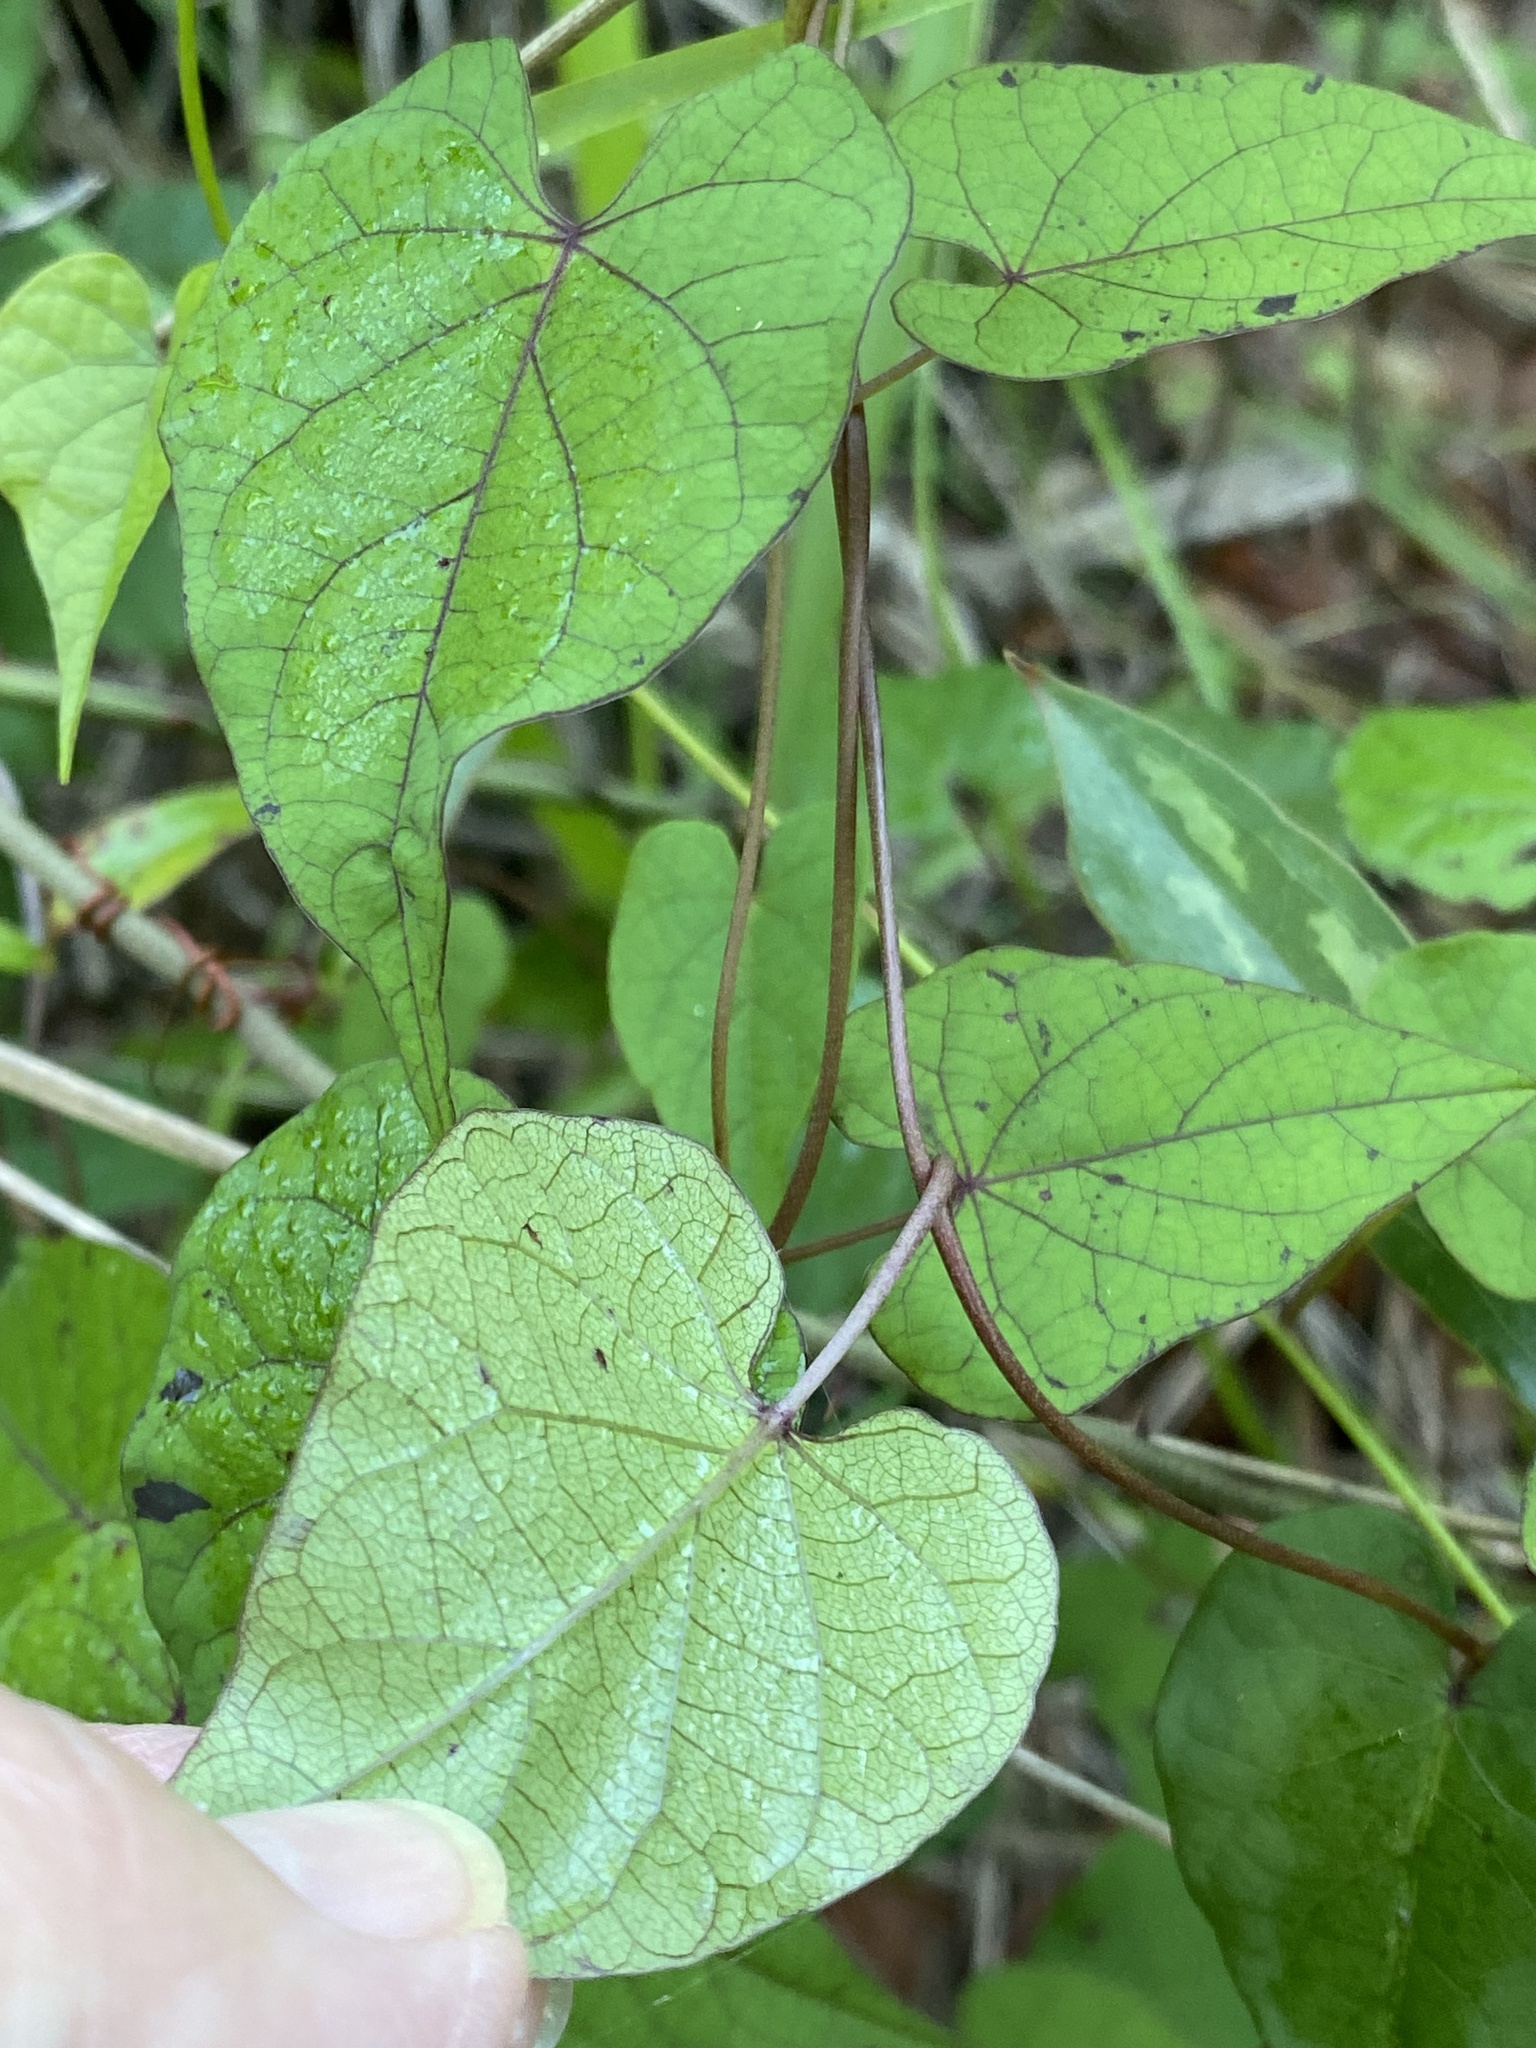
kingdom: Plantae
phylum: Tracheophyta
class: Magnoliopsida
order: Solanales
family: Convolvulaceae
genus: Ipomoea
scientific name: Ipomoea pandurata
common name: Man-of-the-earth
